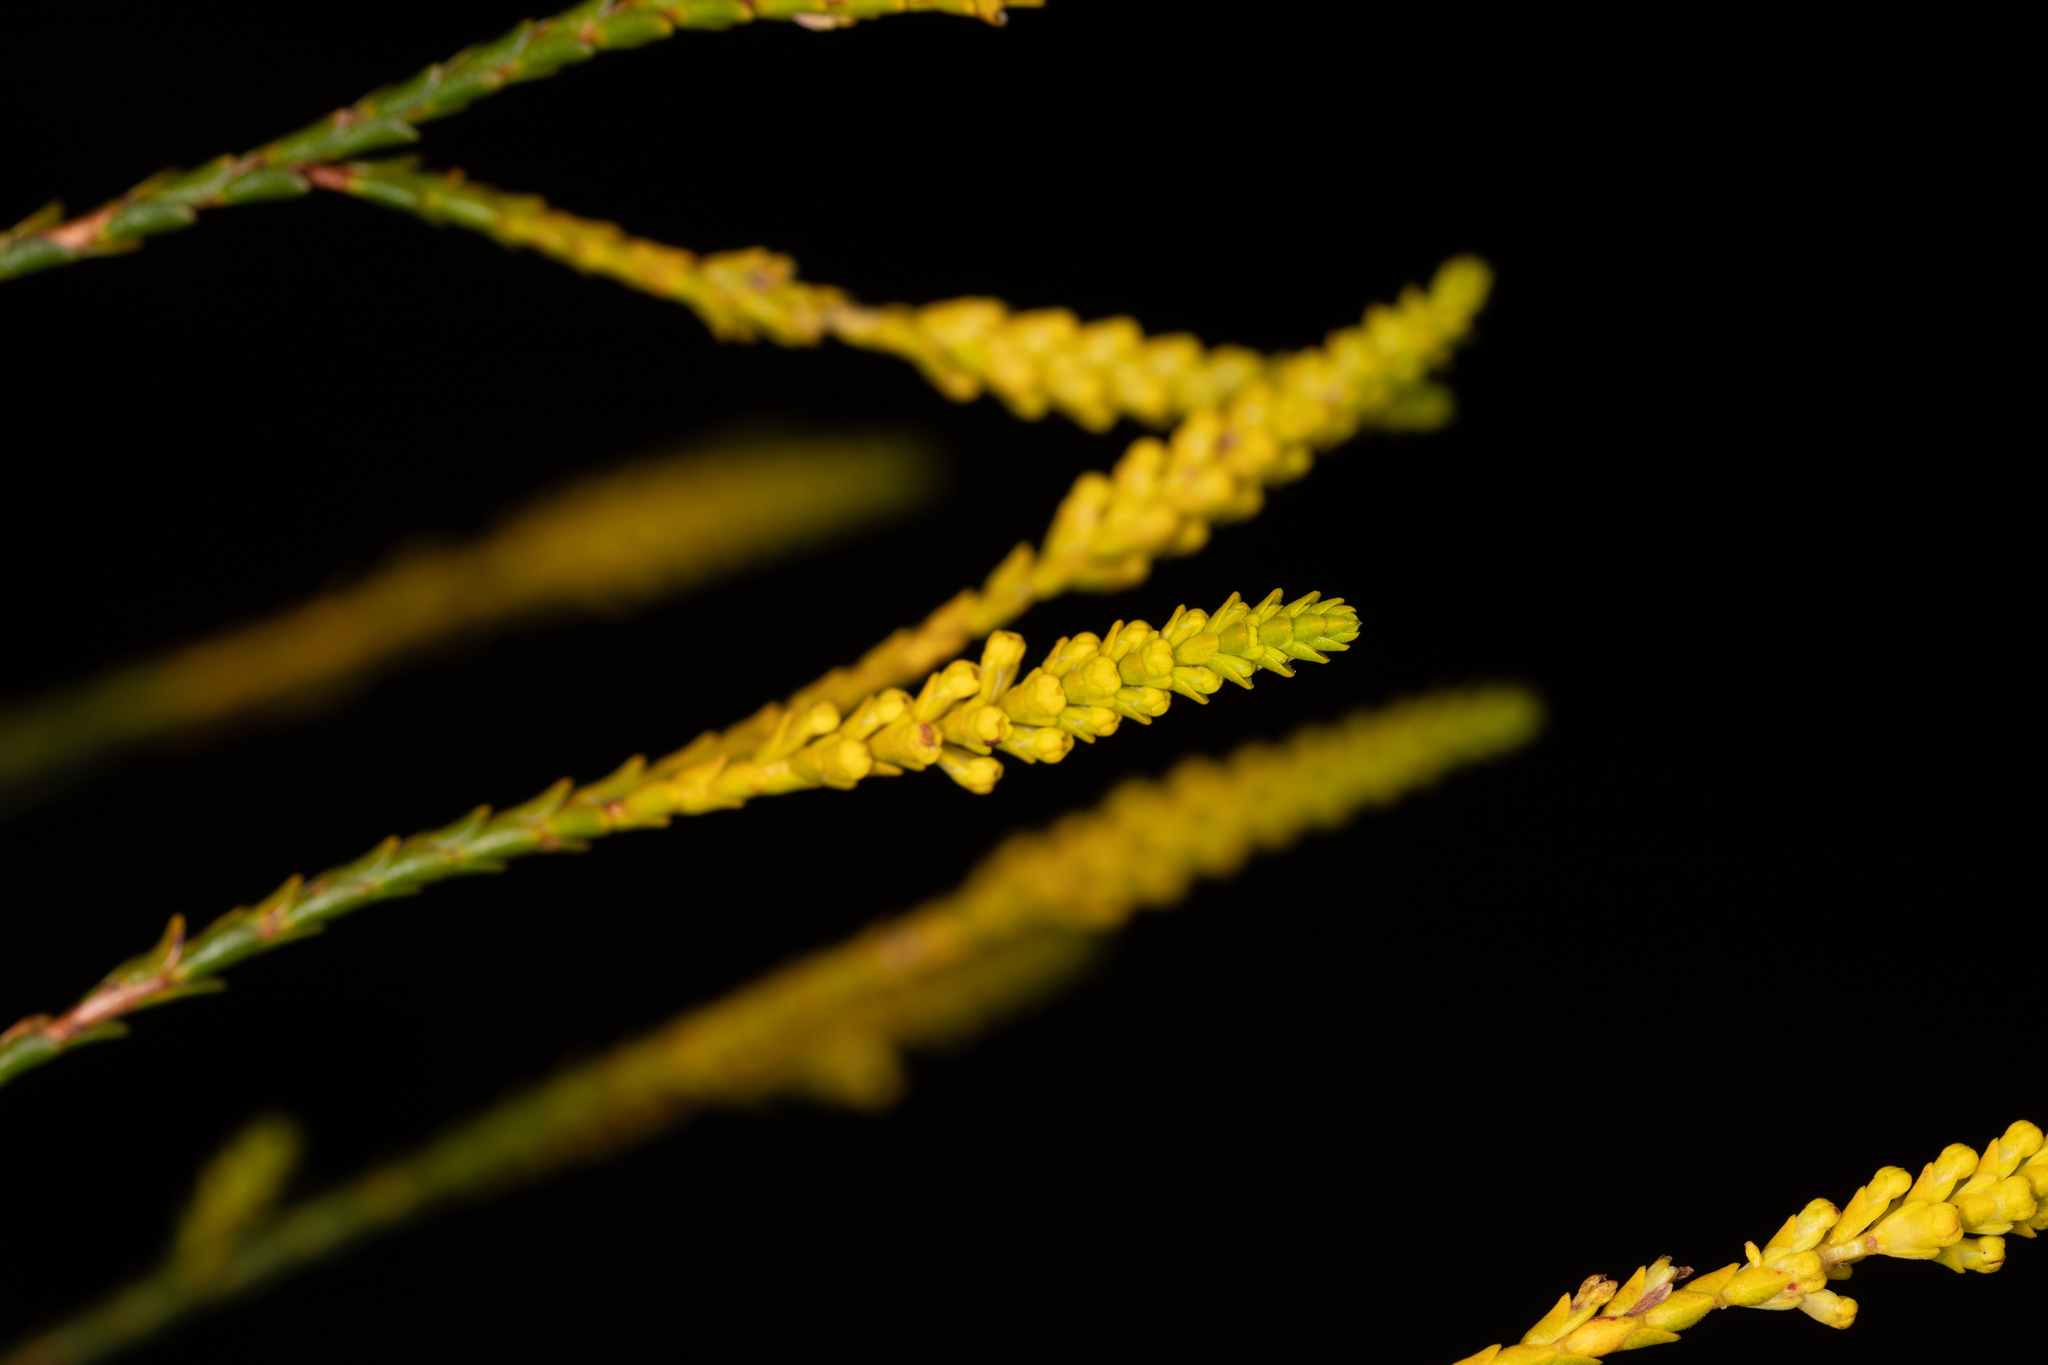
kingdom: Plantae
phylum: Tracheophyta
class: Magnoliopsida
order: Myrtales
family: Myrtaceae
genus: Micromyrtus
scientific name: Micromyrtus flava
